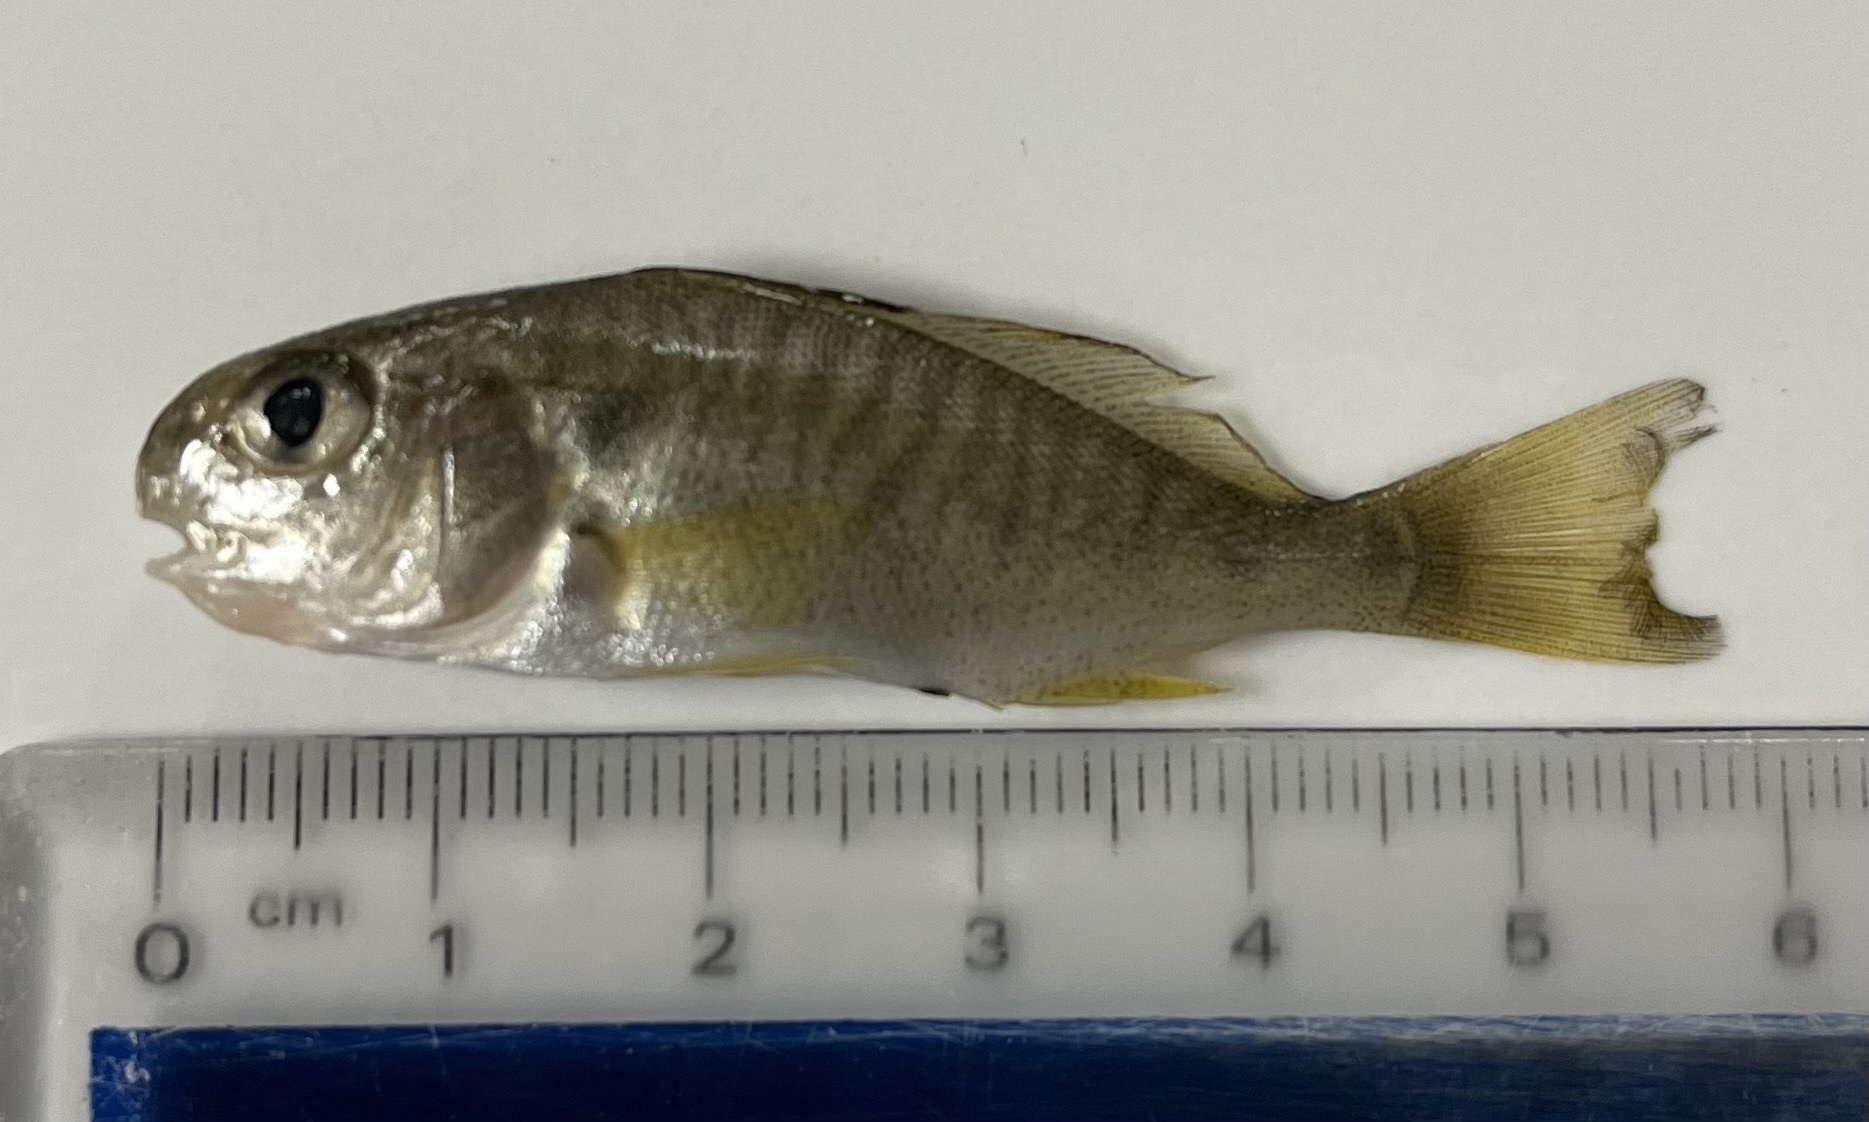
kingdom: Animalia
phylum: Chordata
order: Perciformes
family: Sciaenidae
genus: Leiostomus
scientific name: Leiostomus xanthurus
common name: Spot
